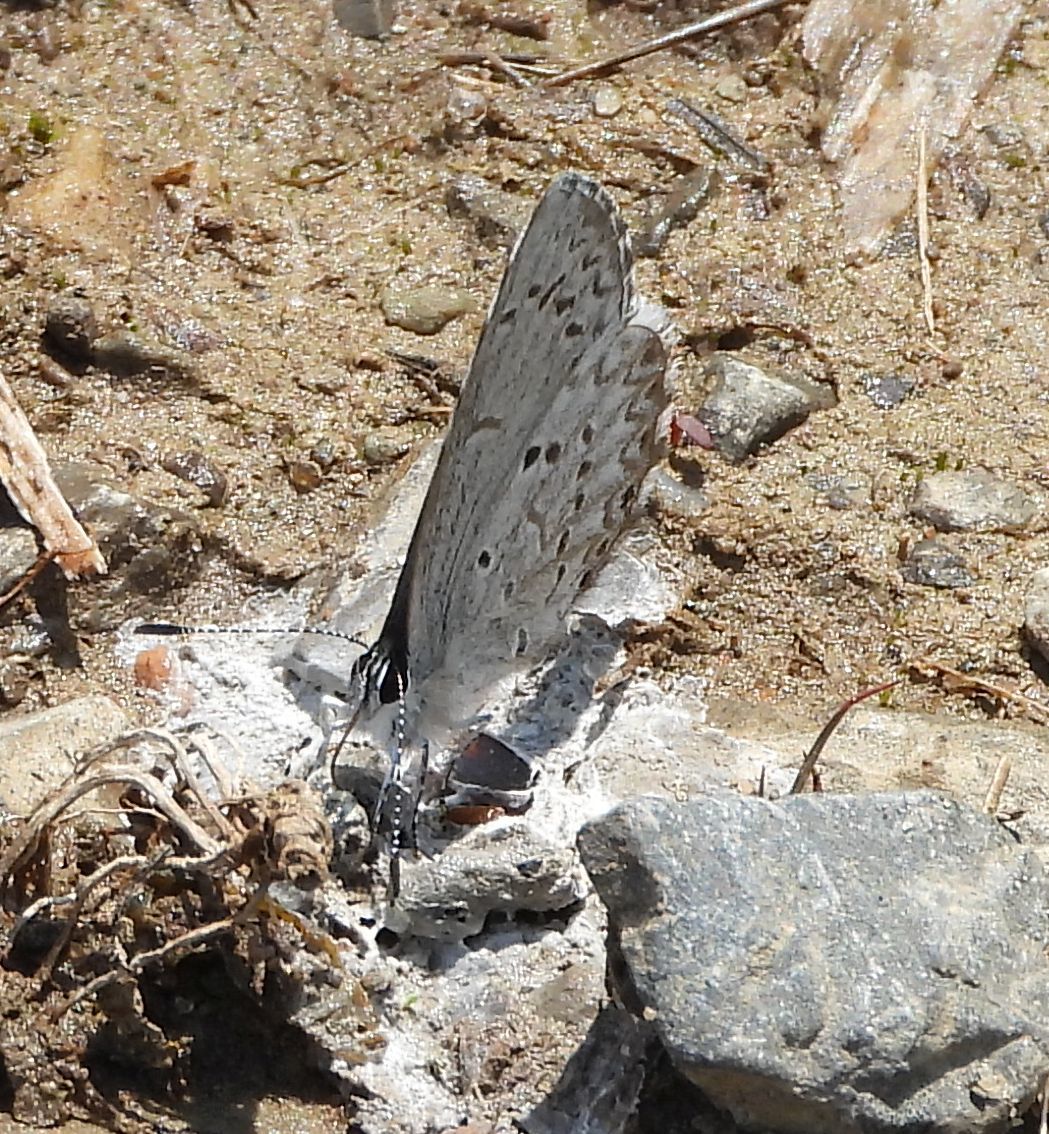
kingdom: Animalia
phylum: Arthropoda
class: Insecta
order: Lepidoptera
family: Lycaenidae
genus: Celastrina
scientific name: Celastrina lucia
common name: Lucia azure
